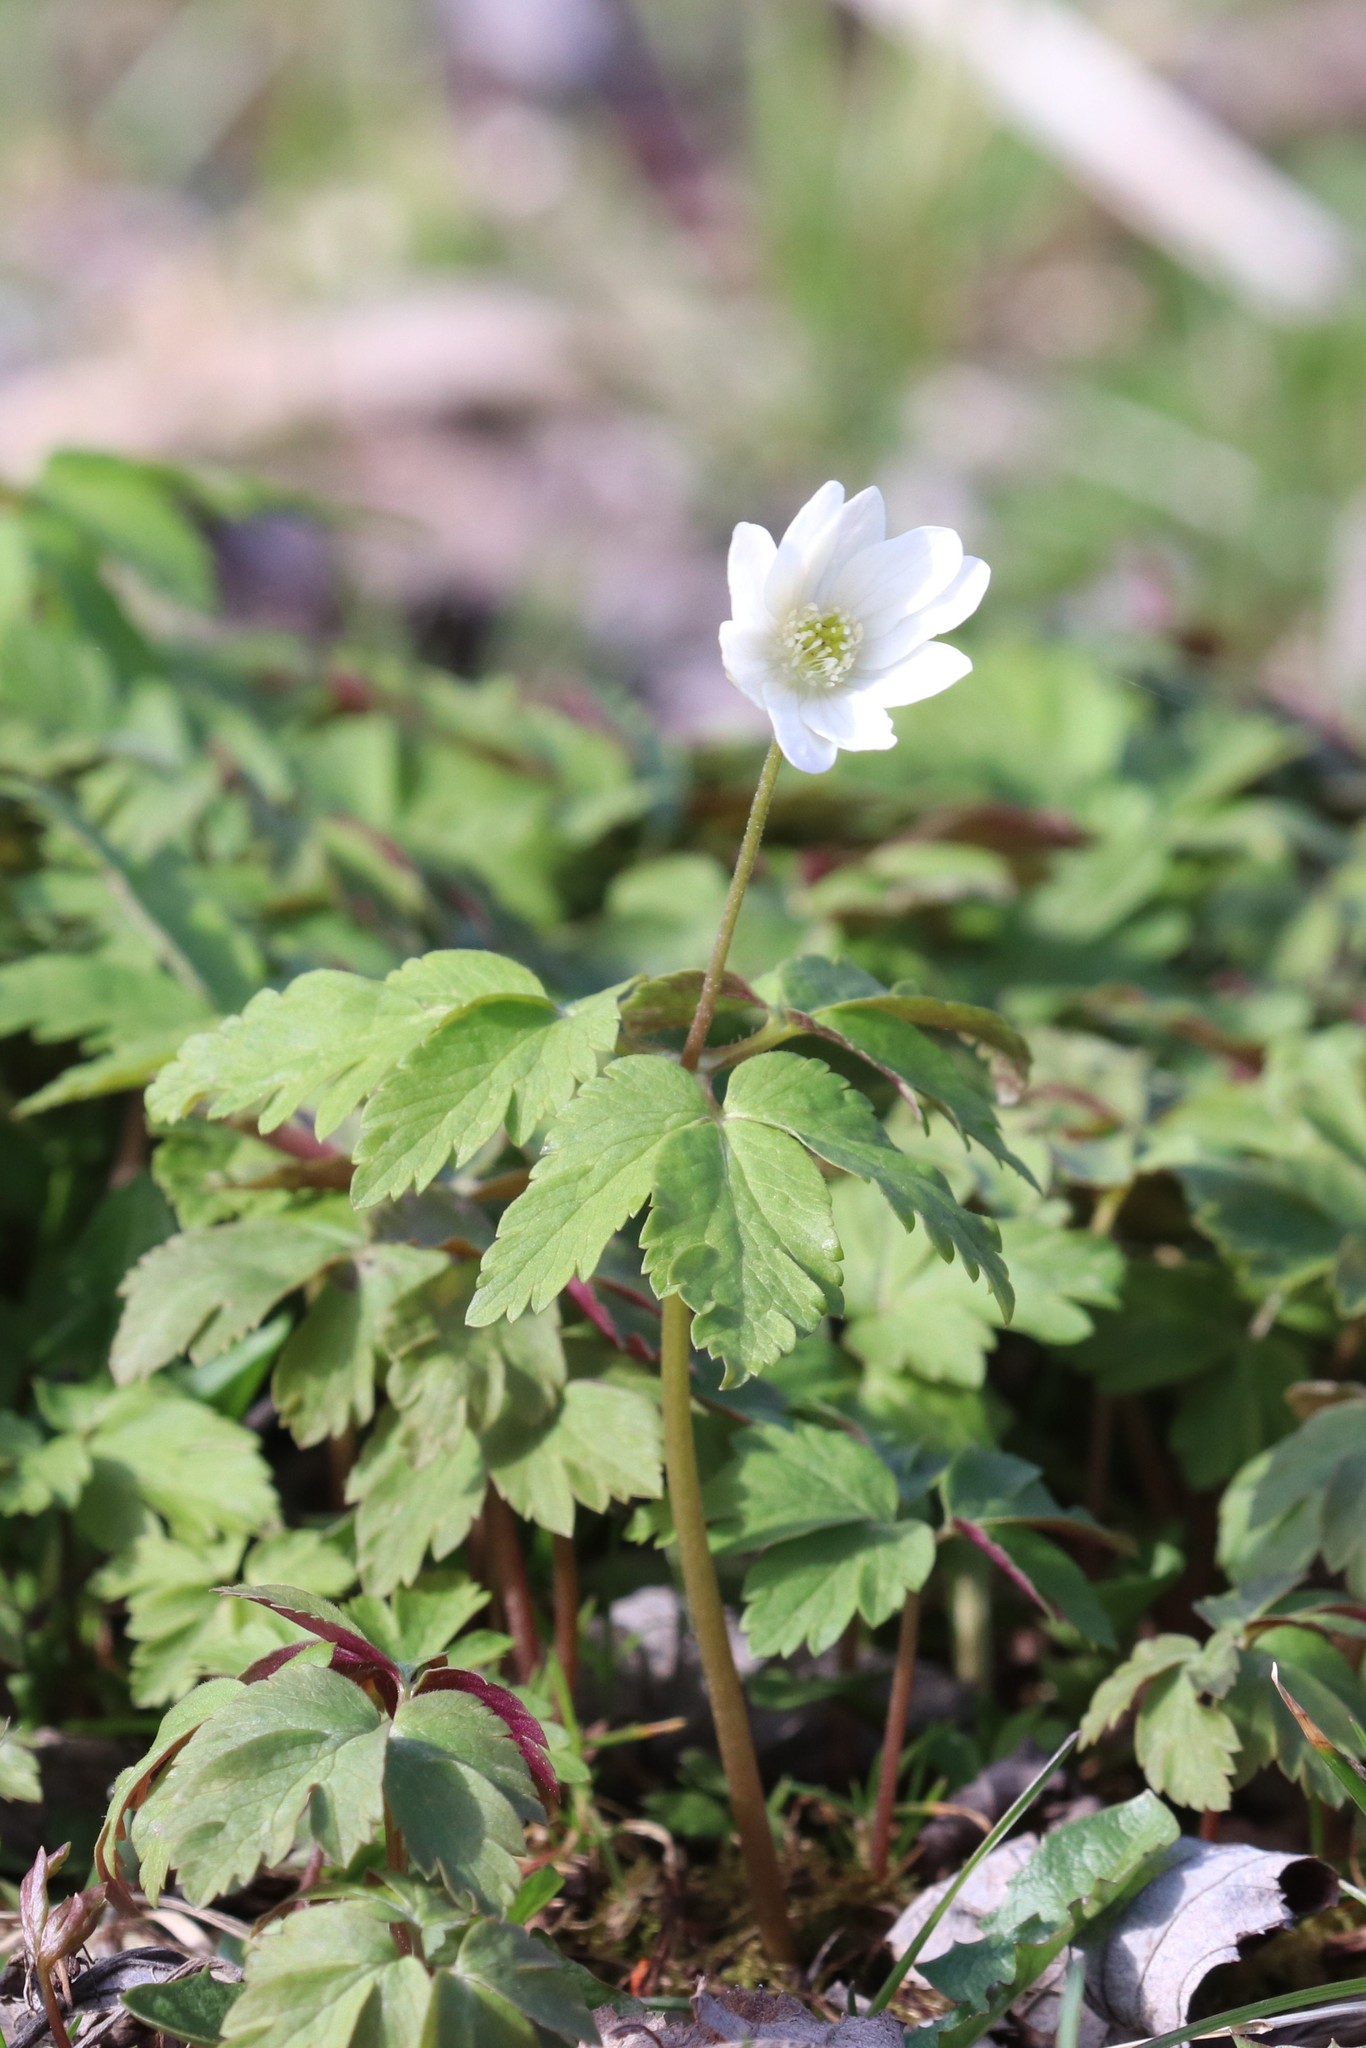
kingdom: Plantae
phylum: Tracheophyta
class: Magnoliopsida
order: Ranunculales
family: Ranunculaceae
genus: Anemone
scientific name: Anemone altaica
